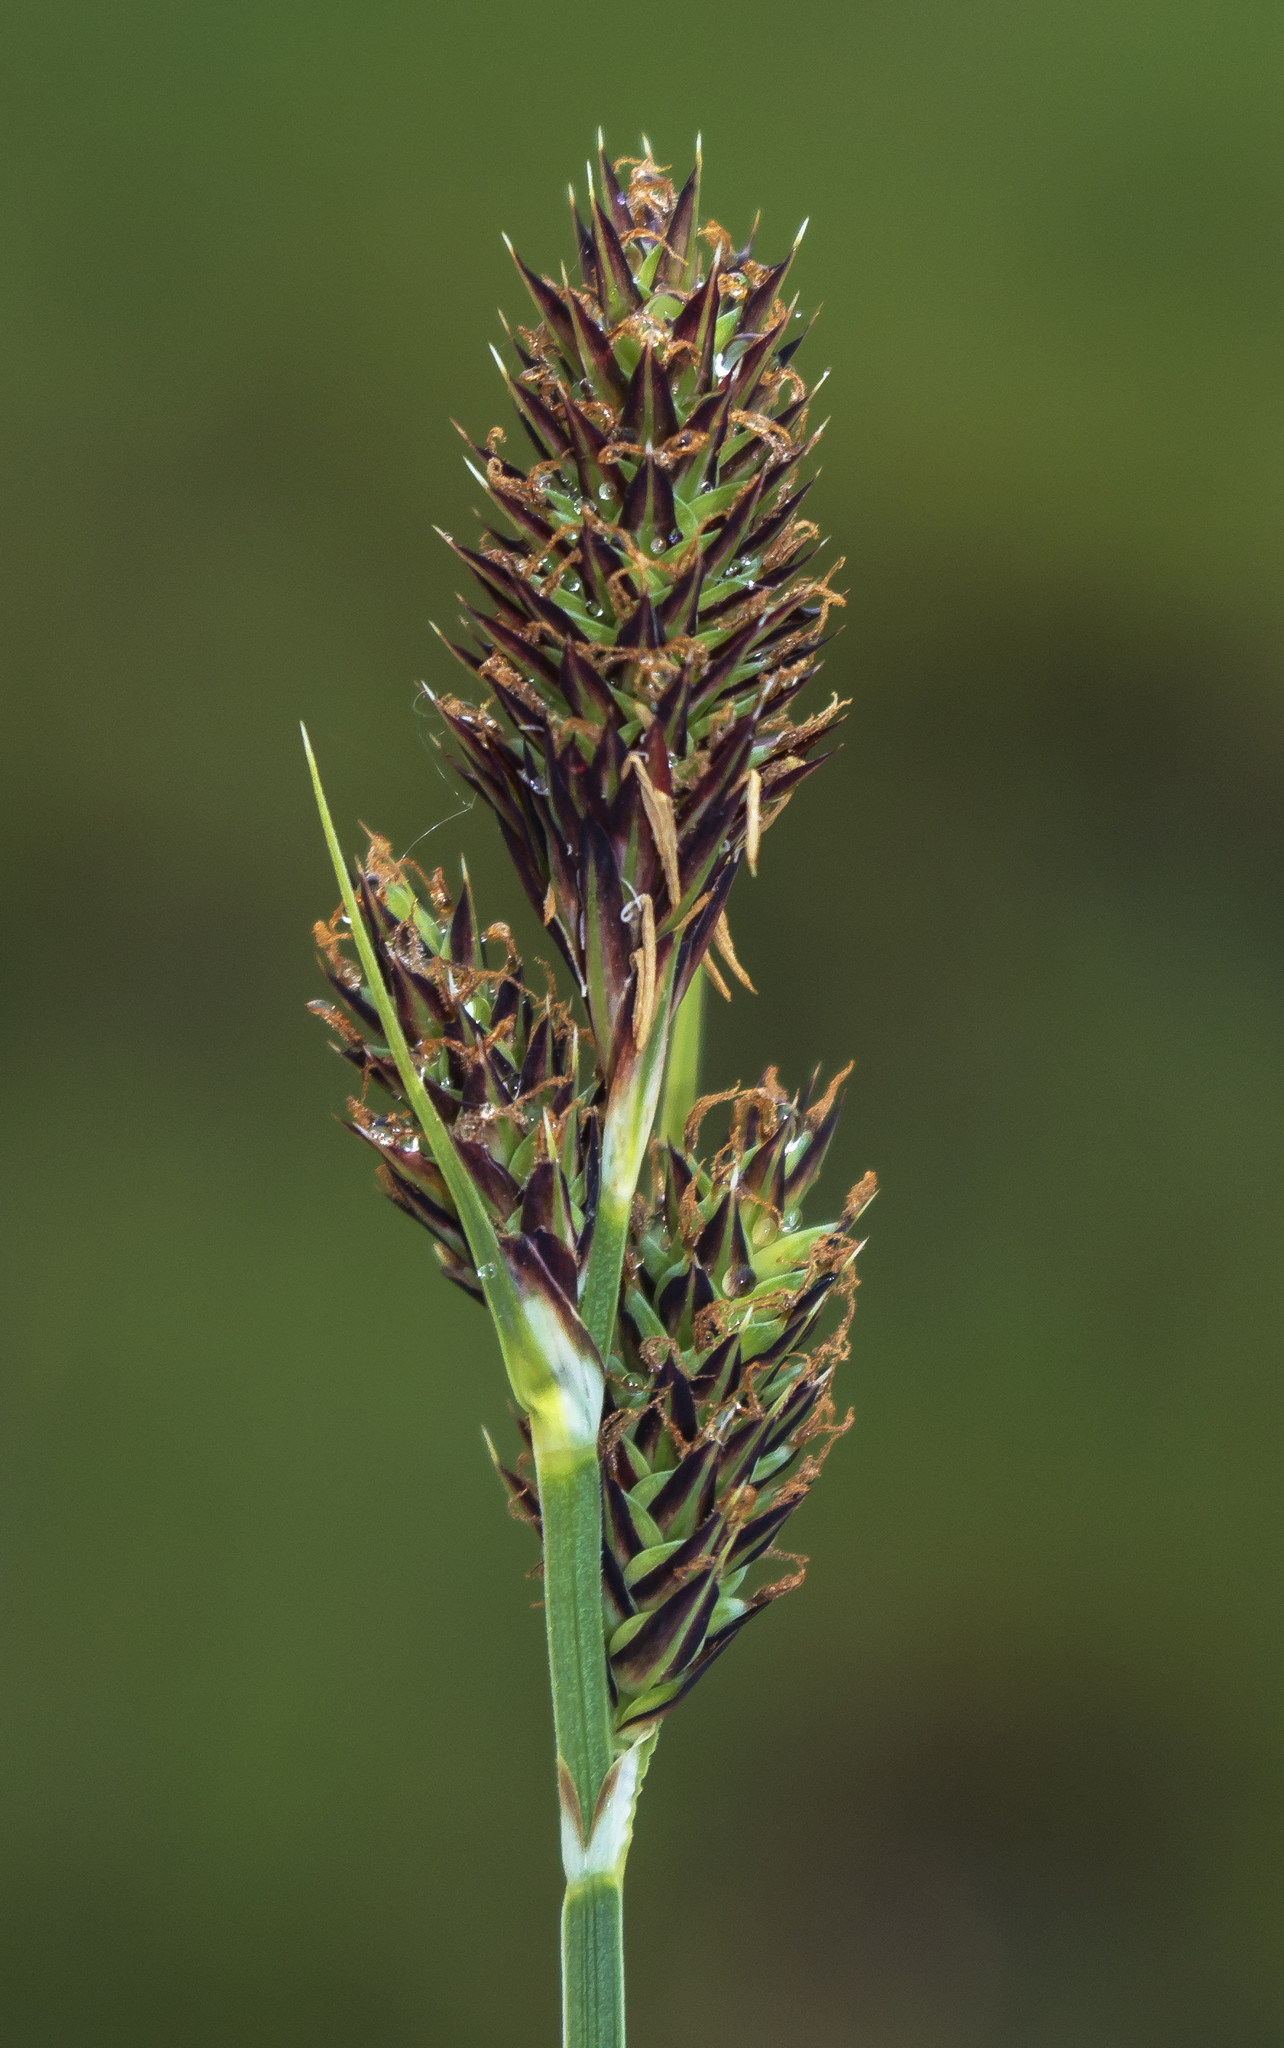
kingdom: Plantae
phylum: Tracheophyta
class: Liliopsida
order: Poales
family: Cyperaceae
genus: Carex
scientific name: Carex buxbaumii
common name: Club sedge
